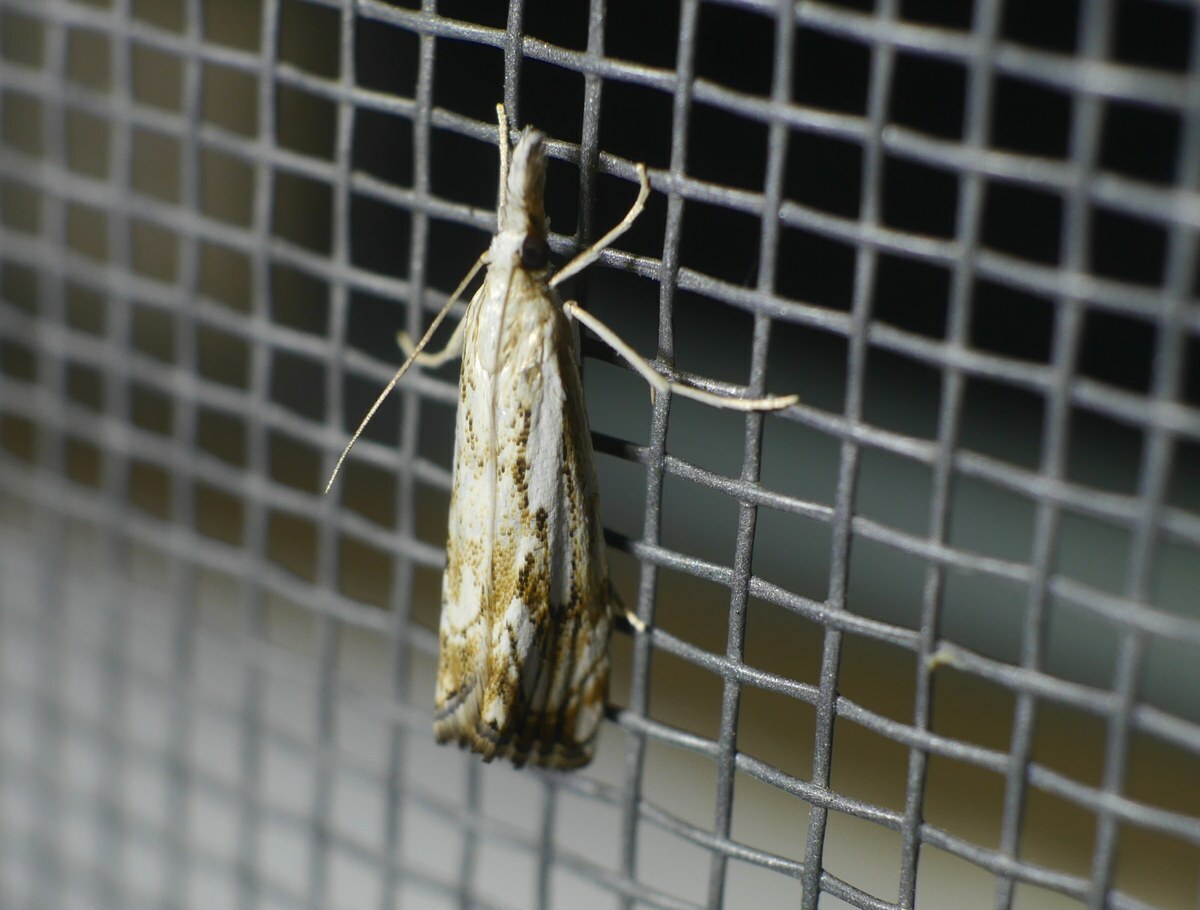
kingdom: Animalia
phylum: Arthropoda
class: Insecta
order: Lepidoptera
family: Crambidae
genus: Catoptria
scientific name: Catoptria falsella
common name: Chequered grass-veneer
